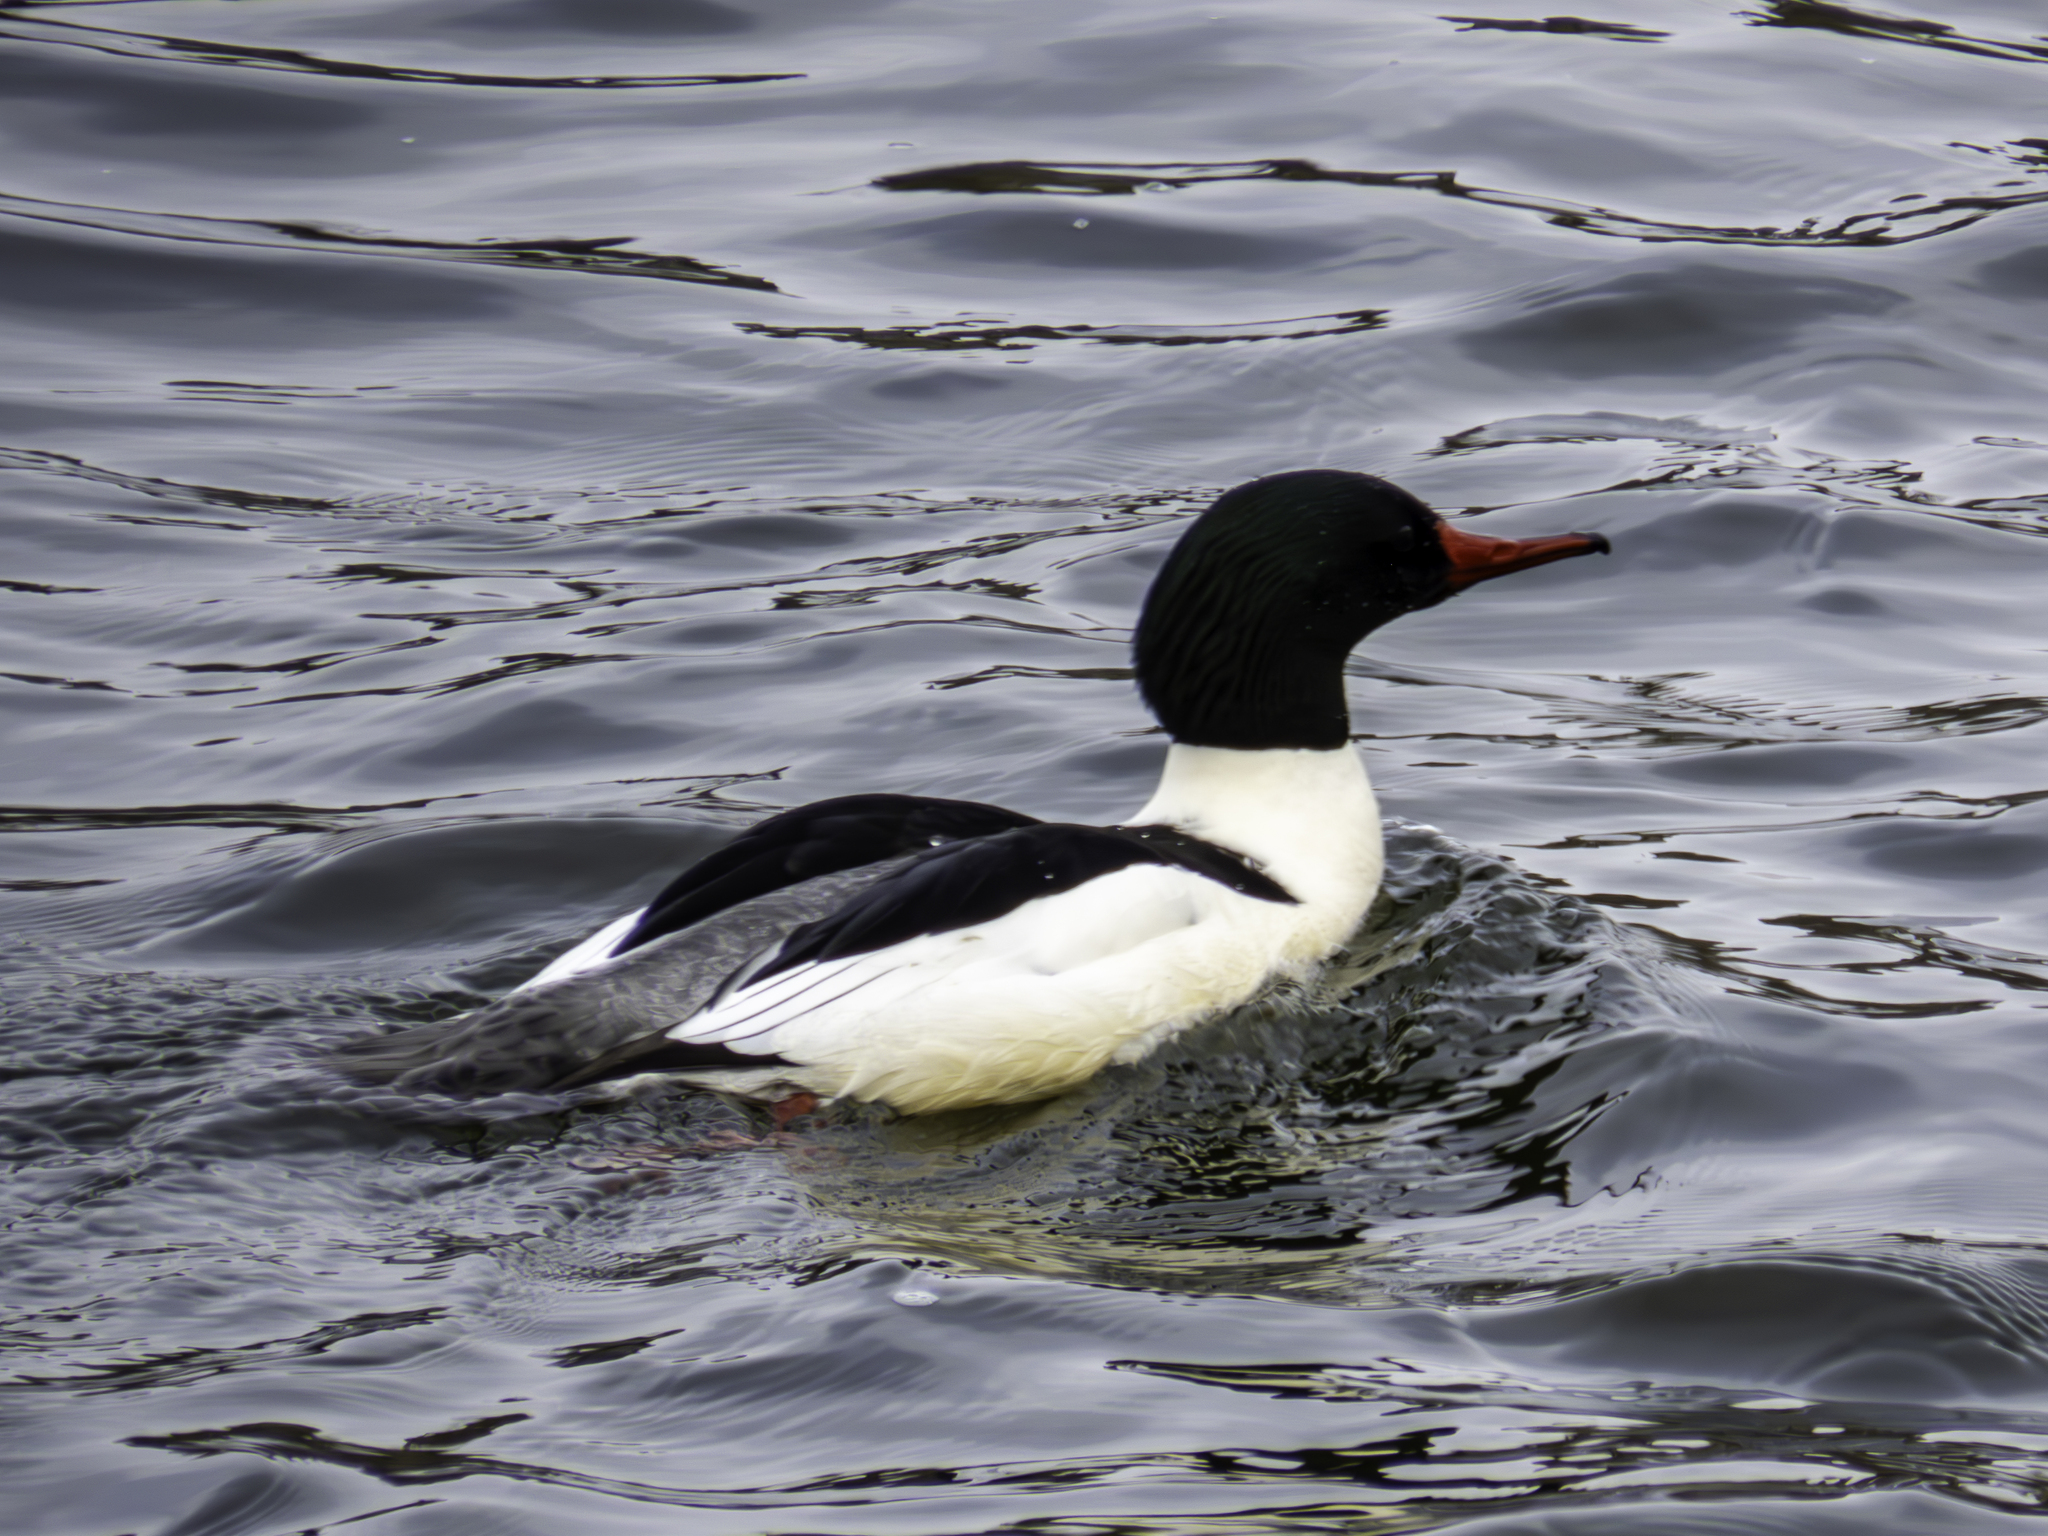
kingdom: Animalia
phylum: Chordata
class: Aves
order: Anseriformes
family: Anatidae
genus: Mergus
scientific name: Mergus merganser
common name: Common merganser
